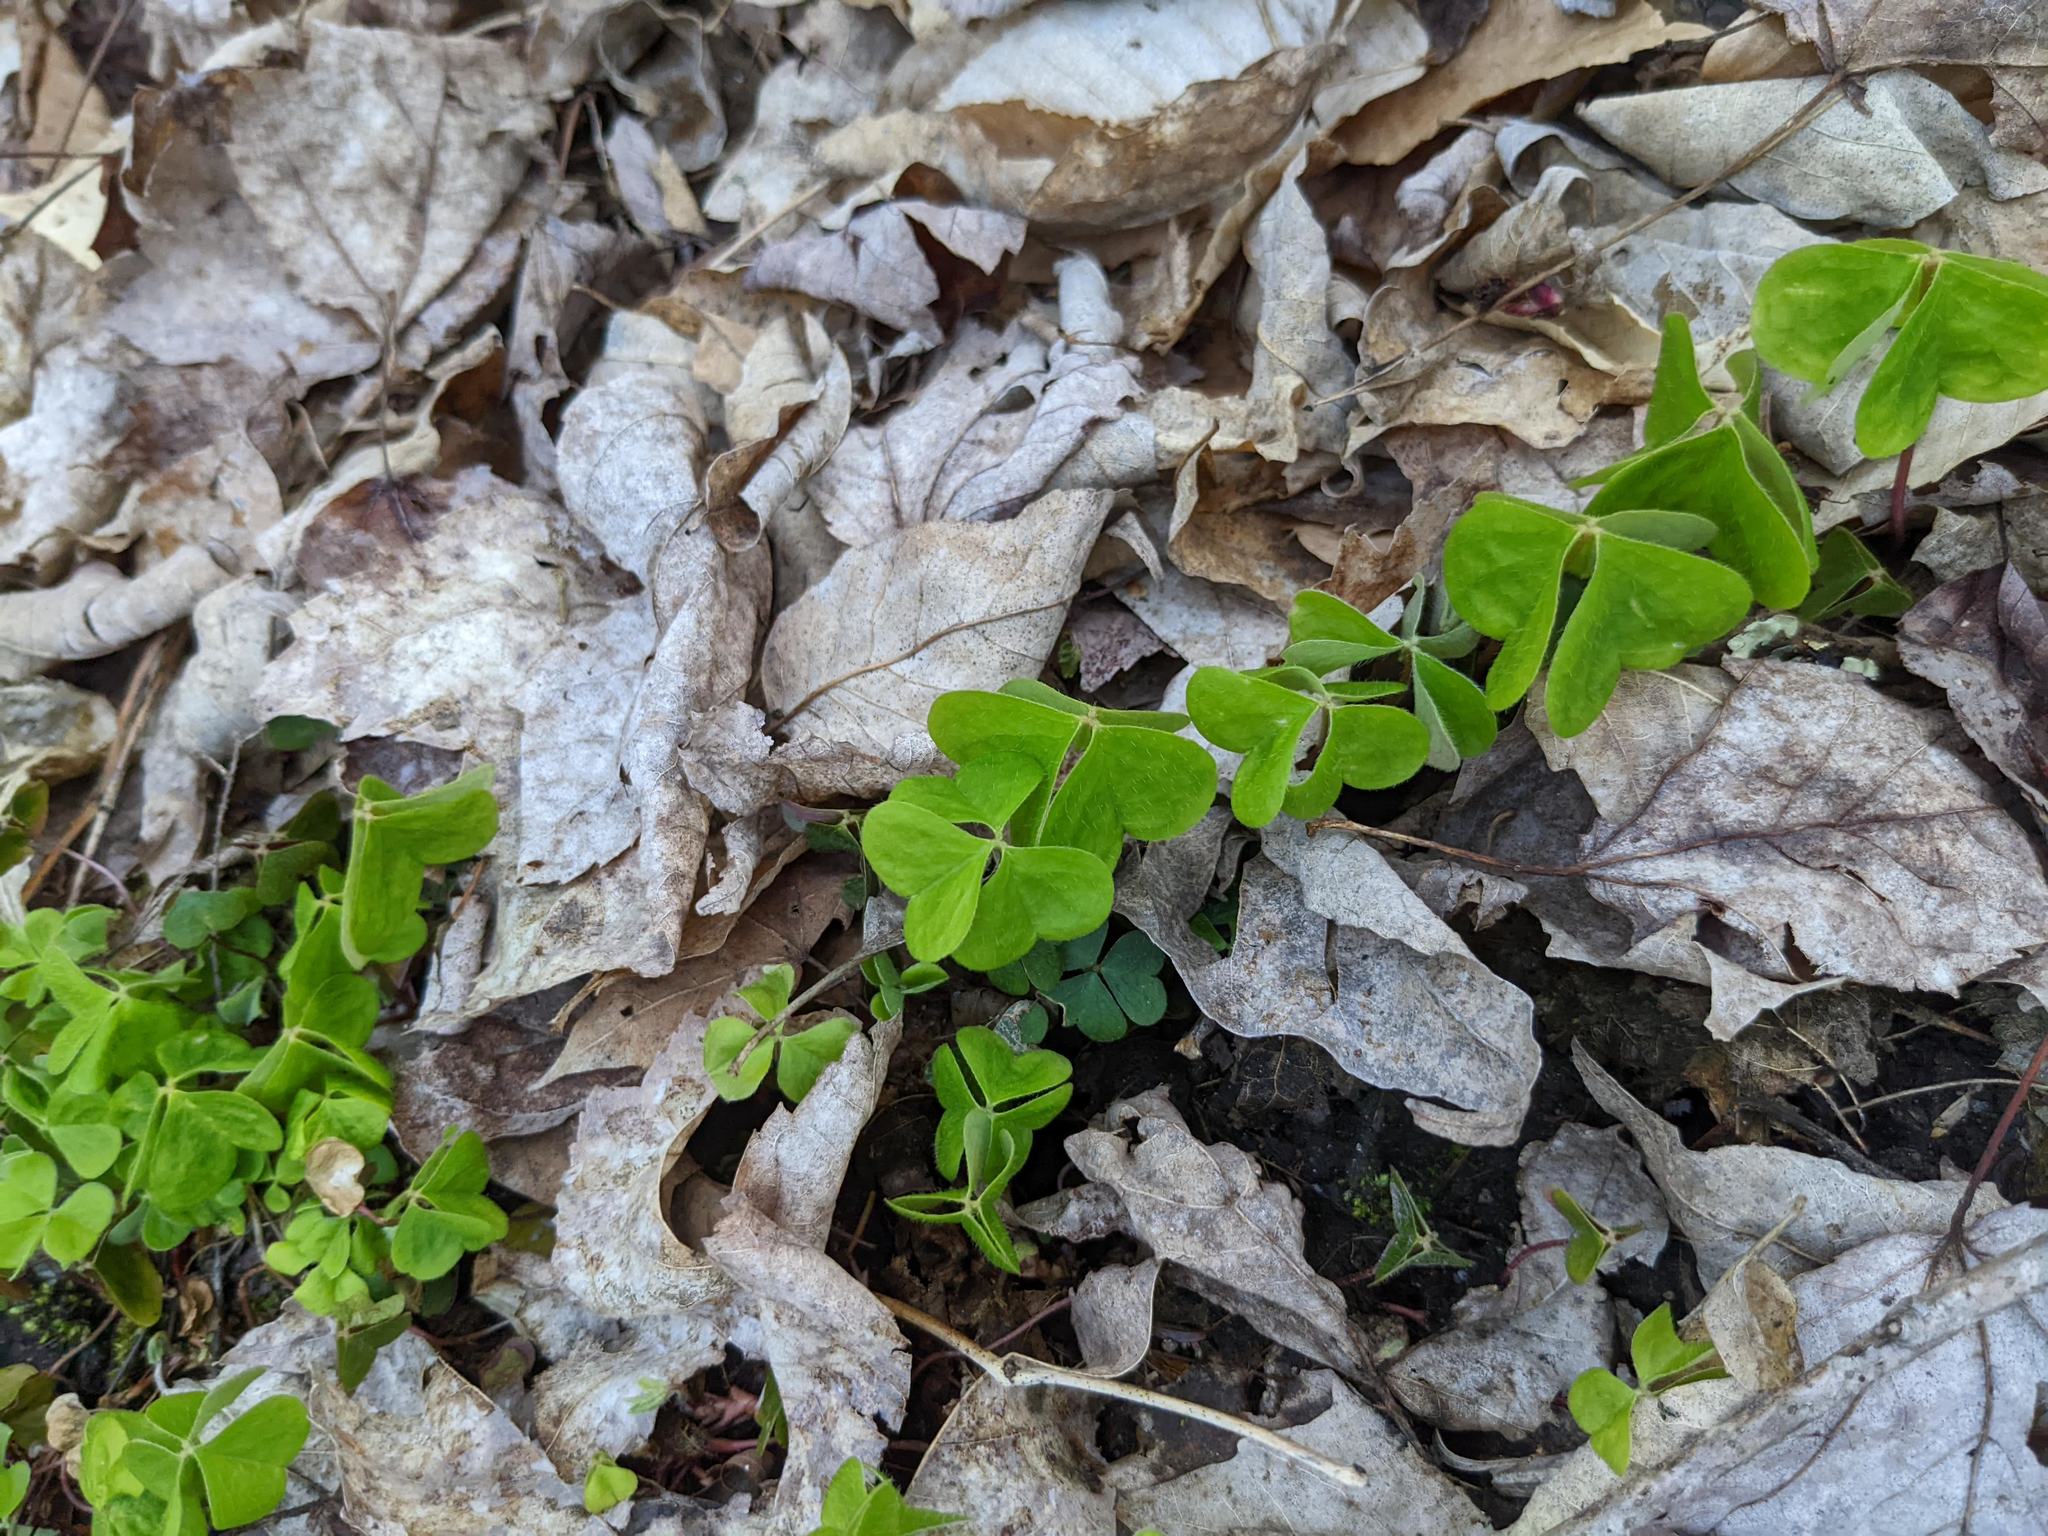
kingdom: Plantae
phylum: Tracheophyta
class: Magnoliopsida
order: Oxalidales
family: Oxalidaceae
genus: Oxalis
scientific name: Oxalis montana
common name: American wood-sorrel
